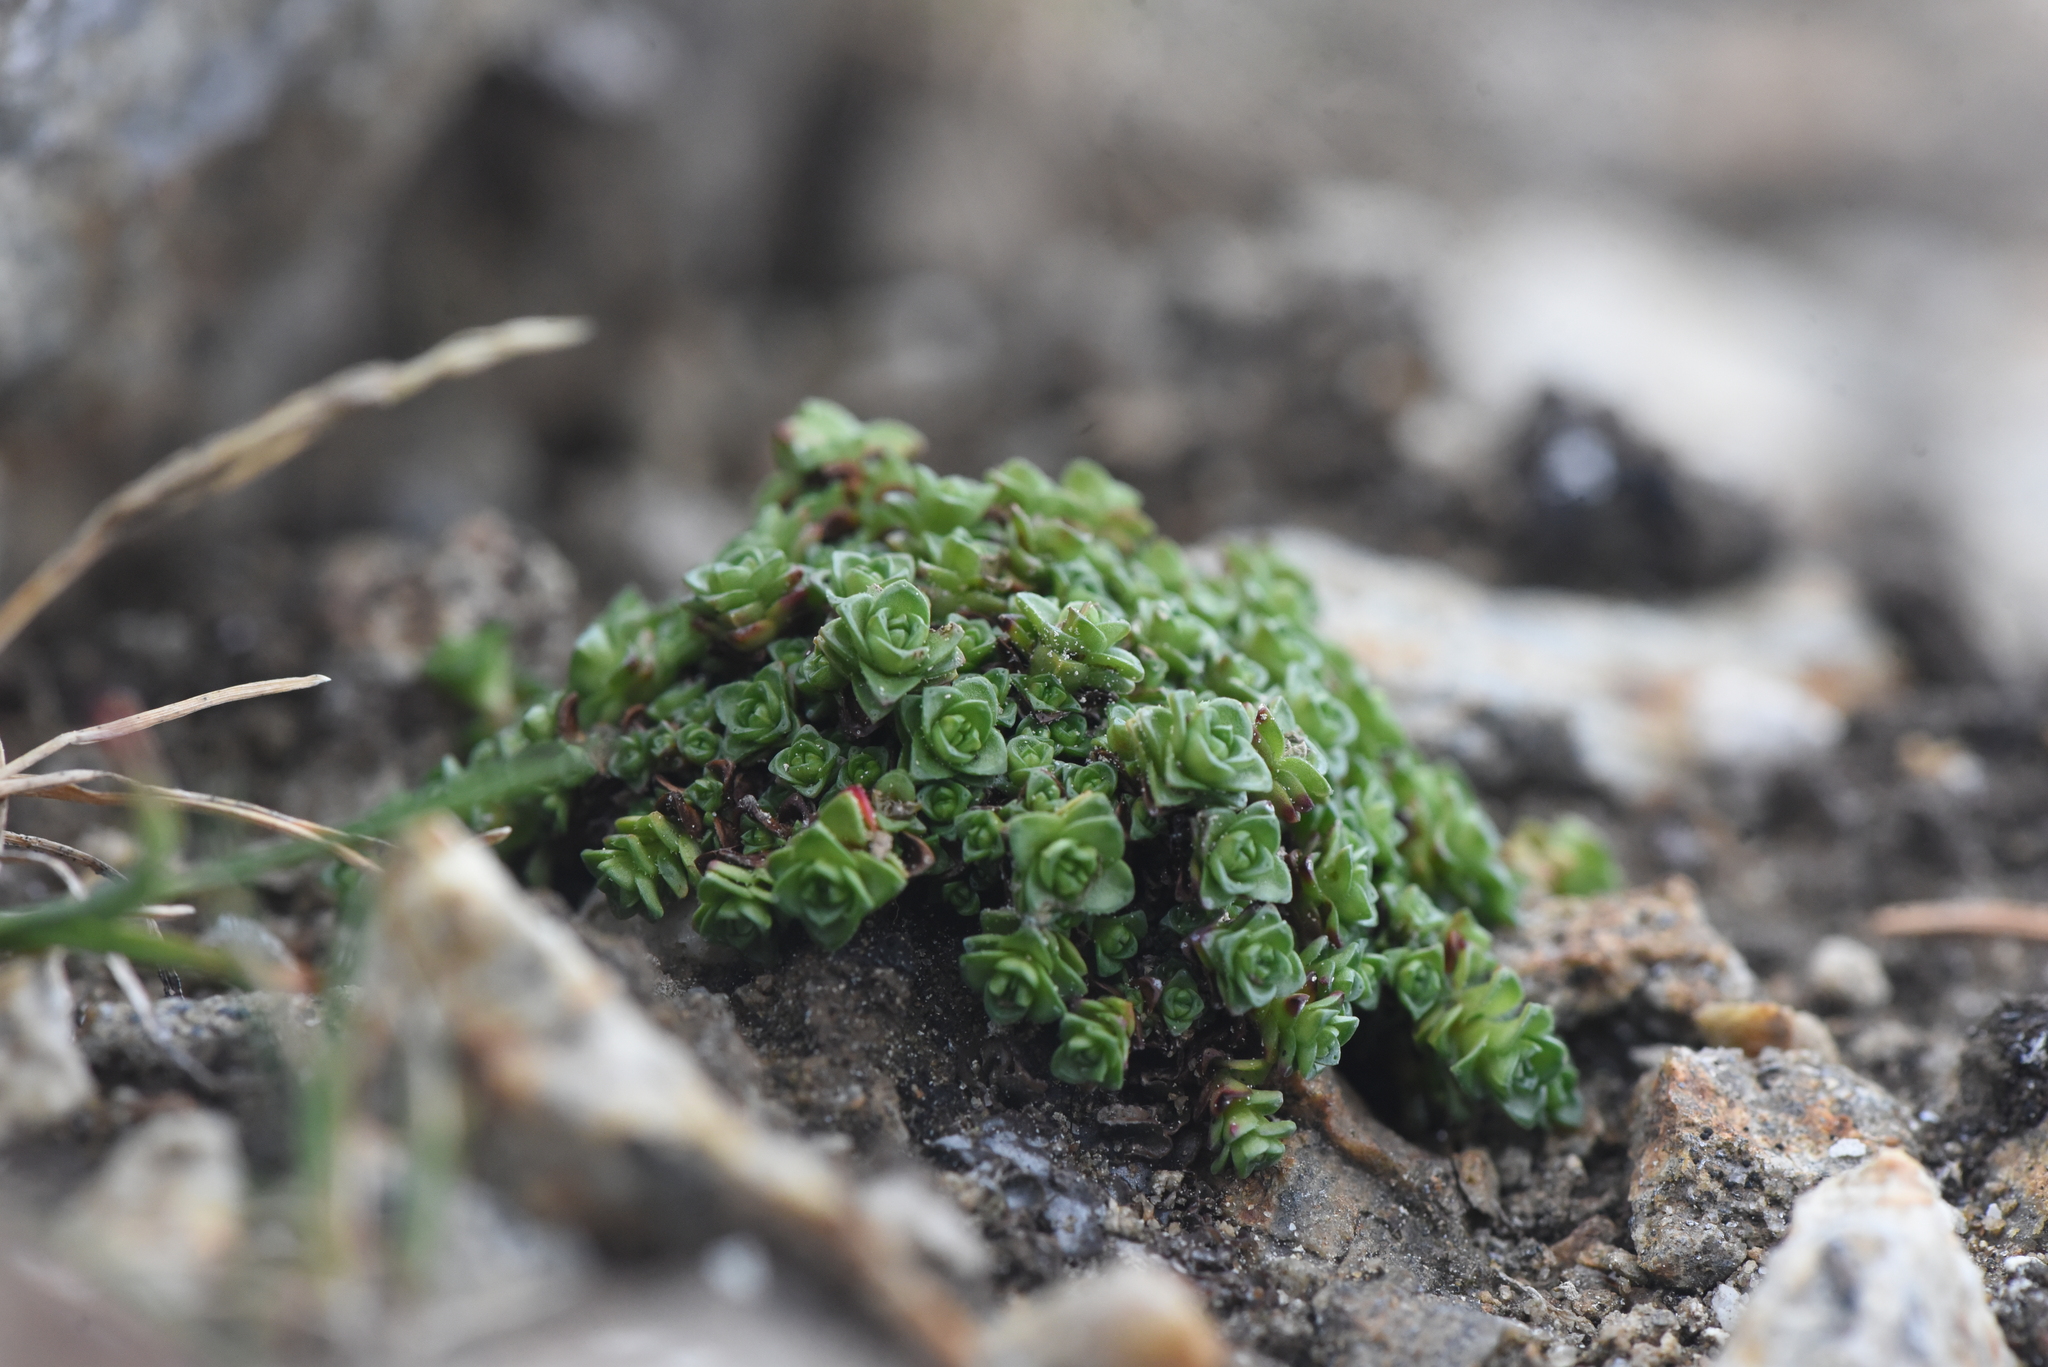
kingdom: Plantae
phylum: Tracheophyta
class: Magnoliopsida
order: Saxifragales
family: Saxifragaceae
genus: Saxifraga
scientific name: Saxifraga oppositifolia
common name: Purple saxifrage
